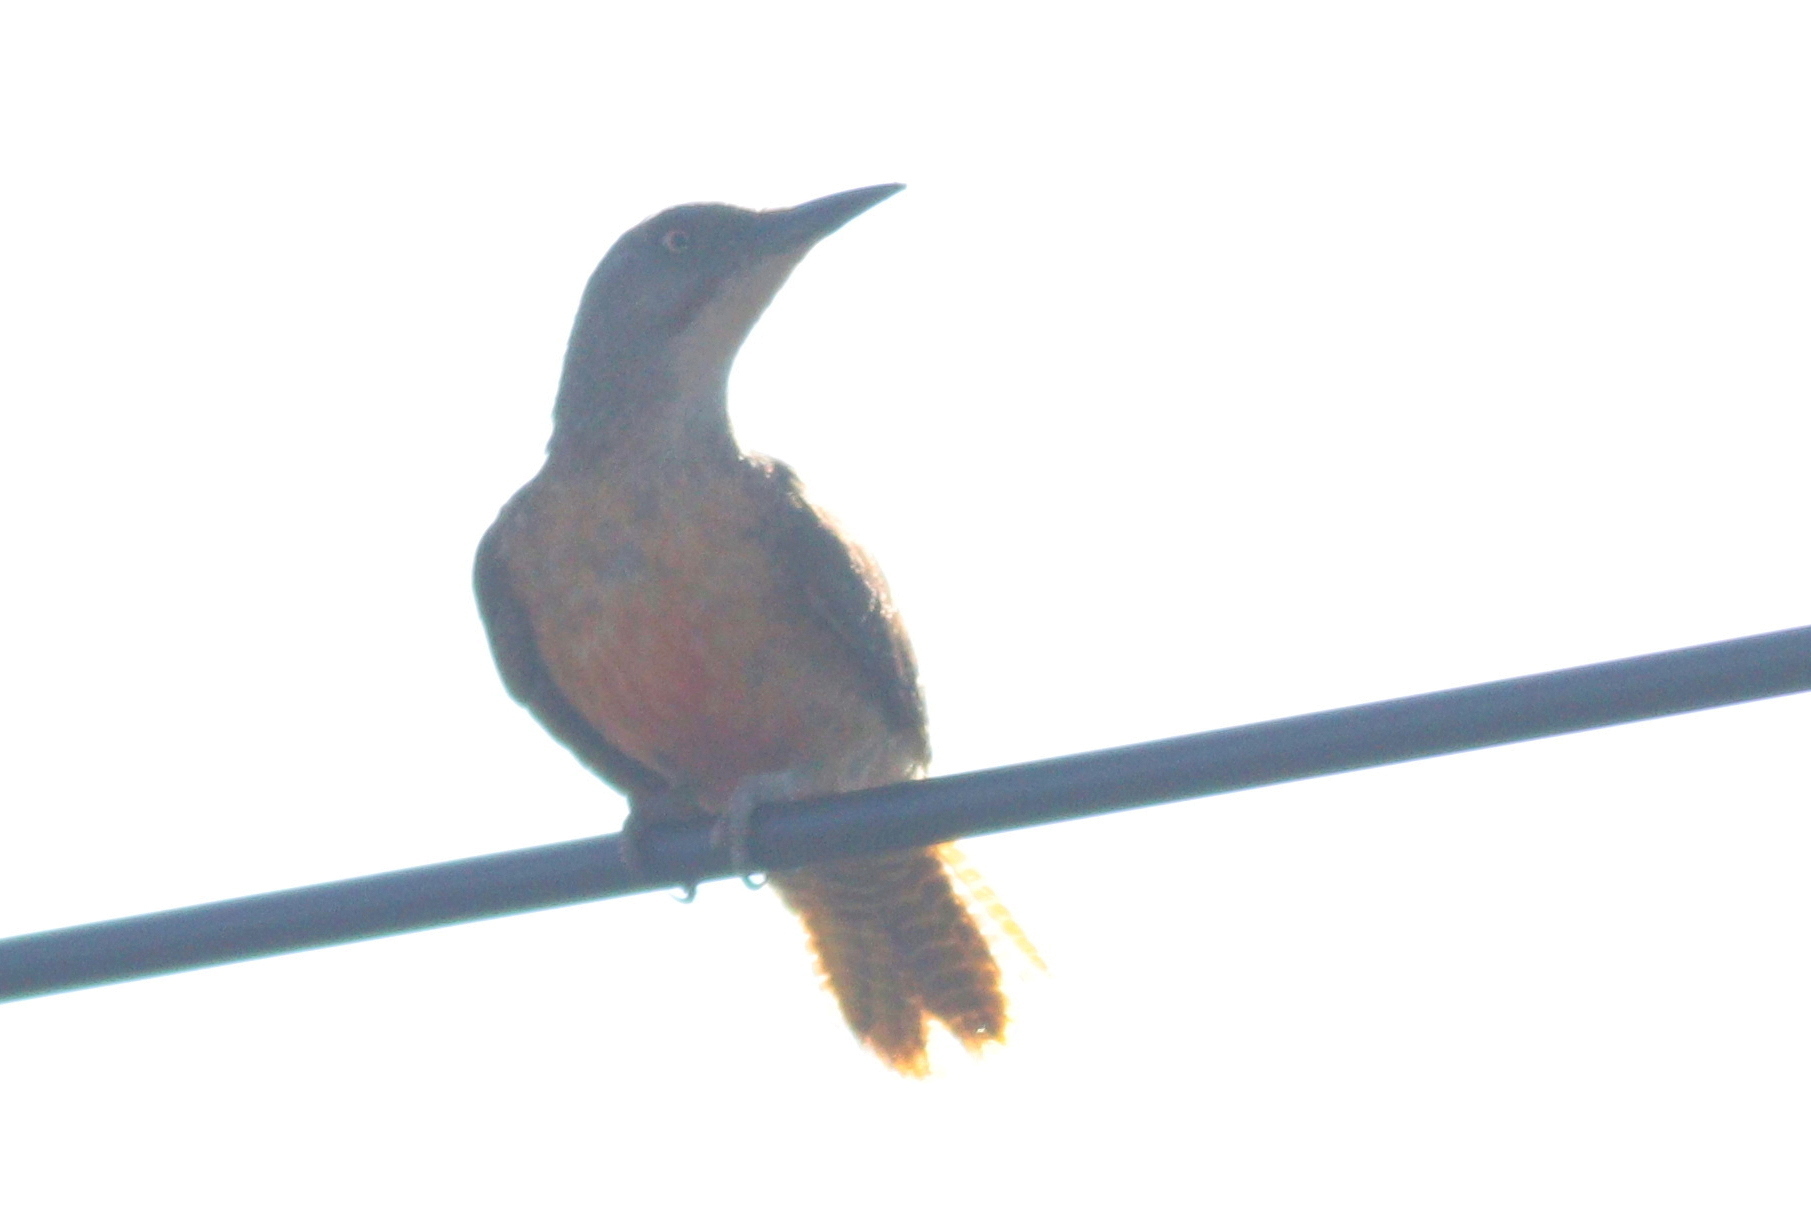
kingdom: Animalia
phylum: Chordata
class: Aves
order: Piciformes
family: Picidae
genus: Geocolaptes
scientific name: Geocolaptes olivaceus
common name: Ground woodpecker
